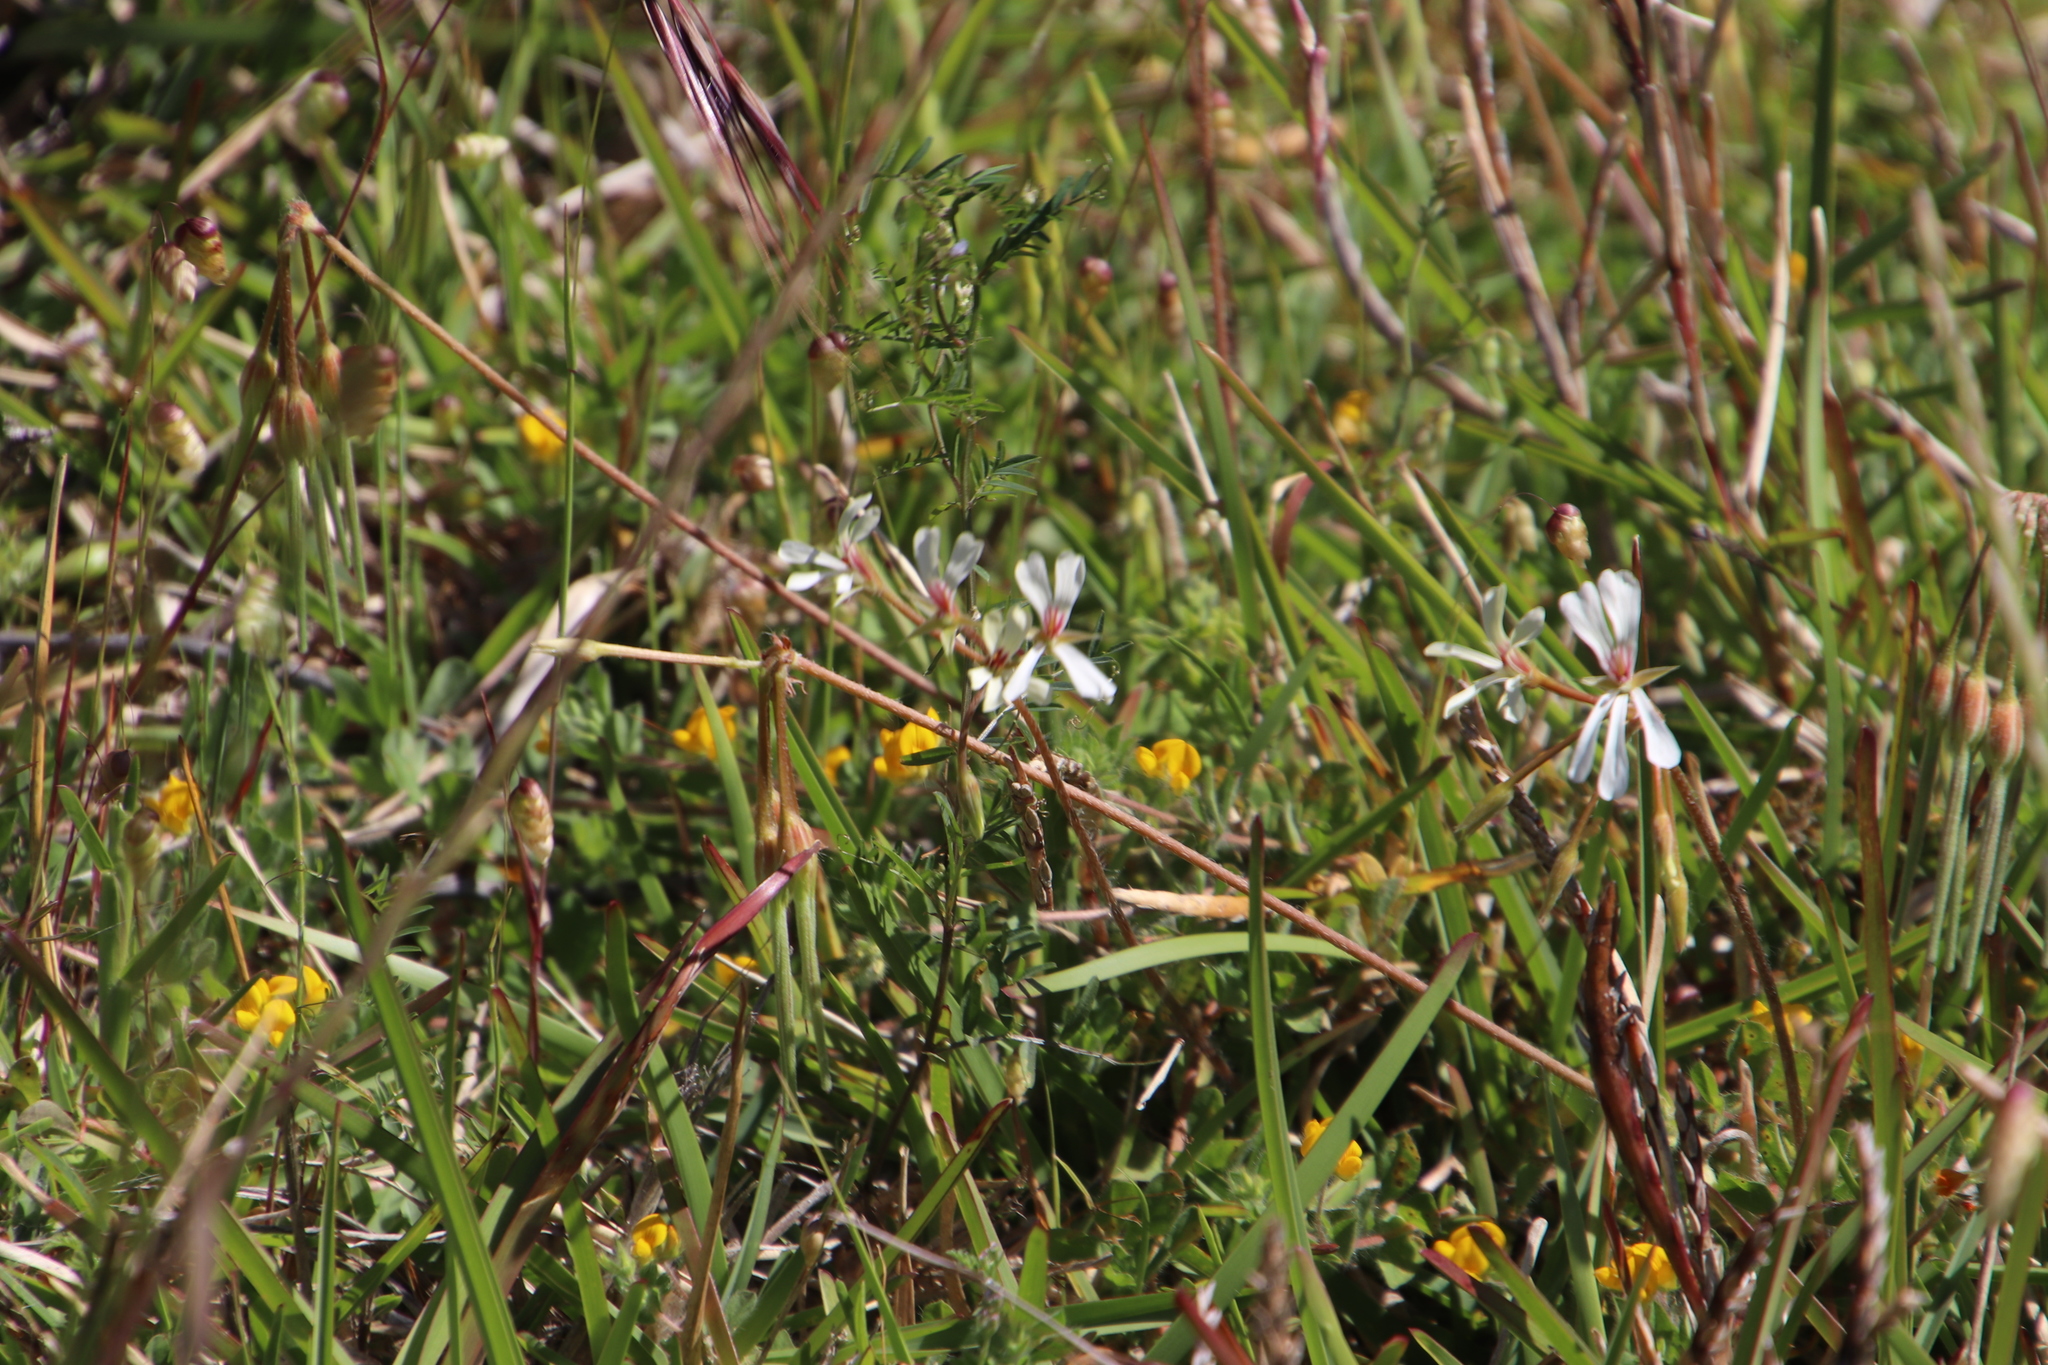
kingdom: Plantae
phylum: Tracheophyta
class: Magnoliopsida
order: Geraniales
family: Geraniaceae
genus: Pelargonium
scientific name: Pelargonium alchemilloides
